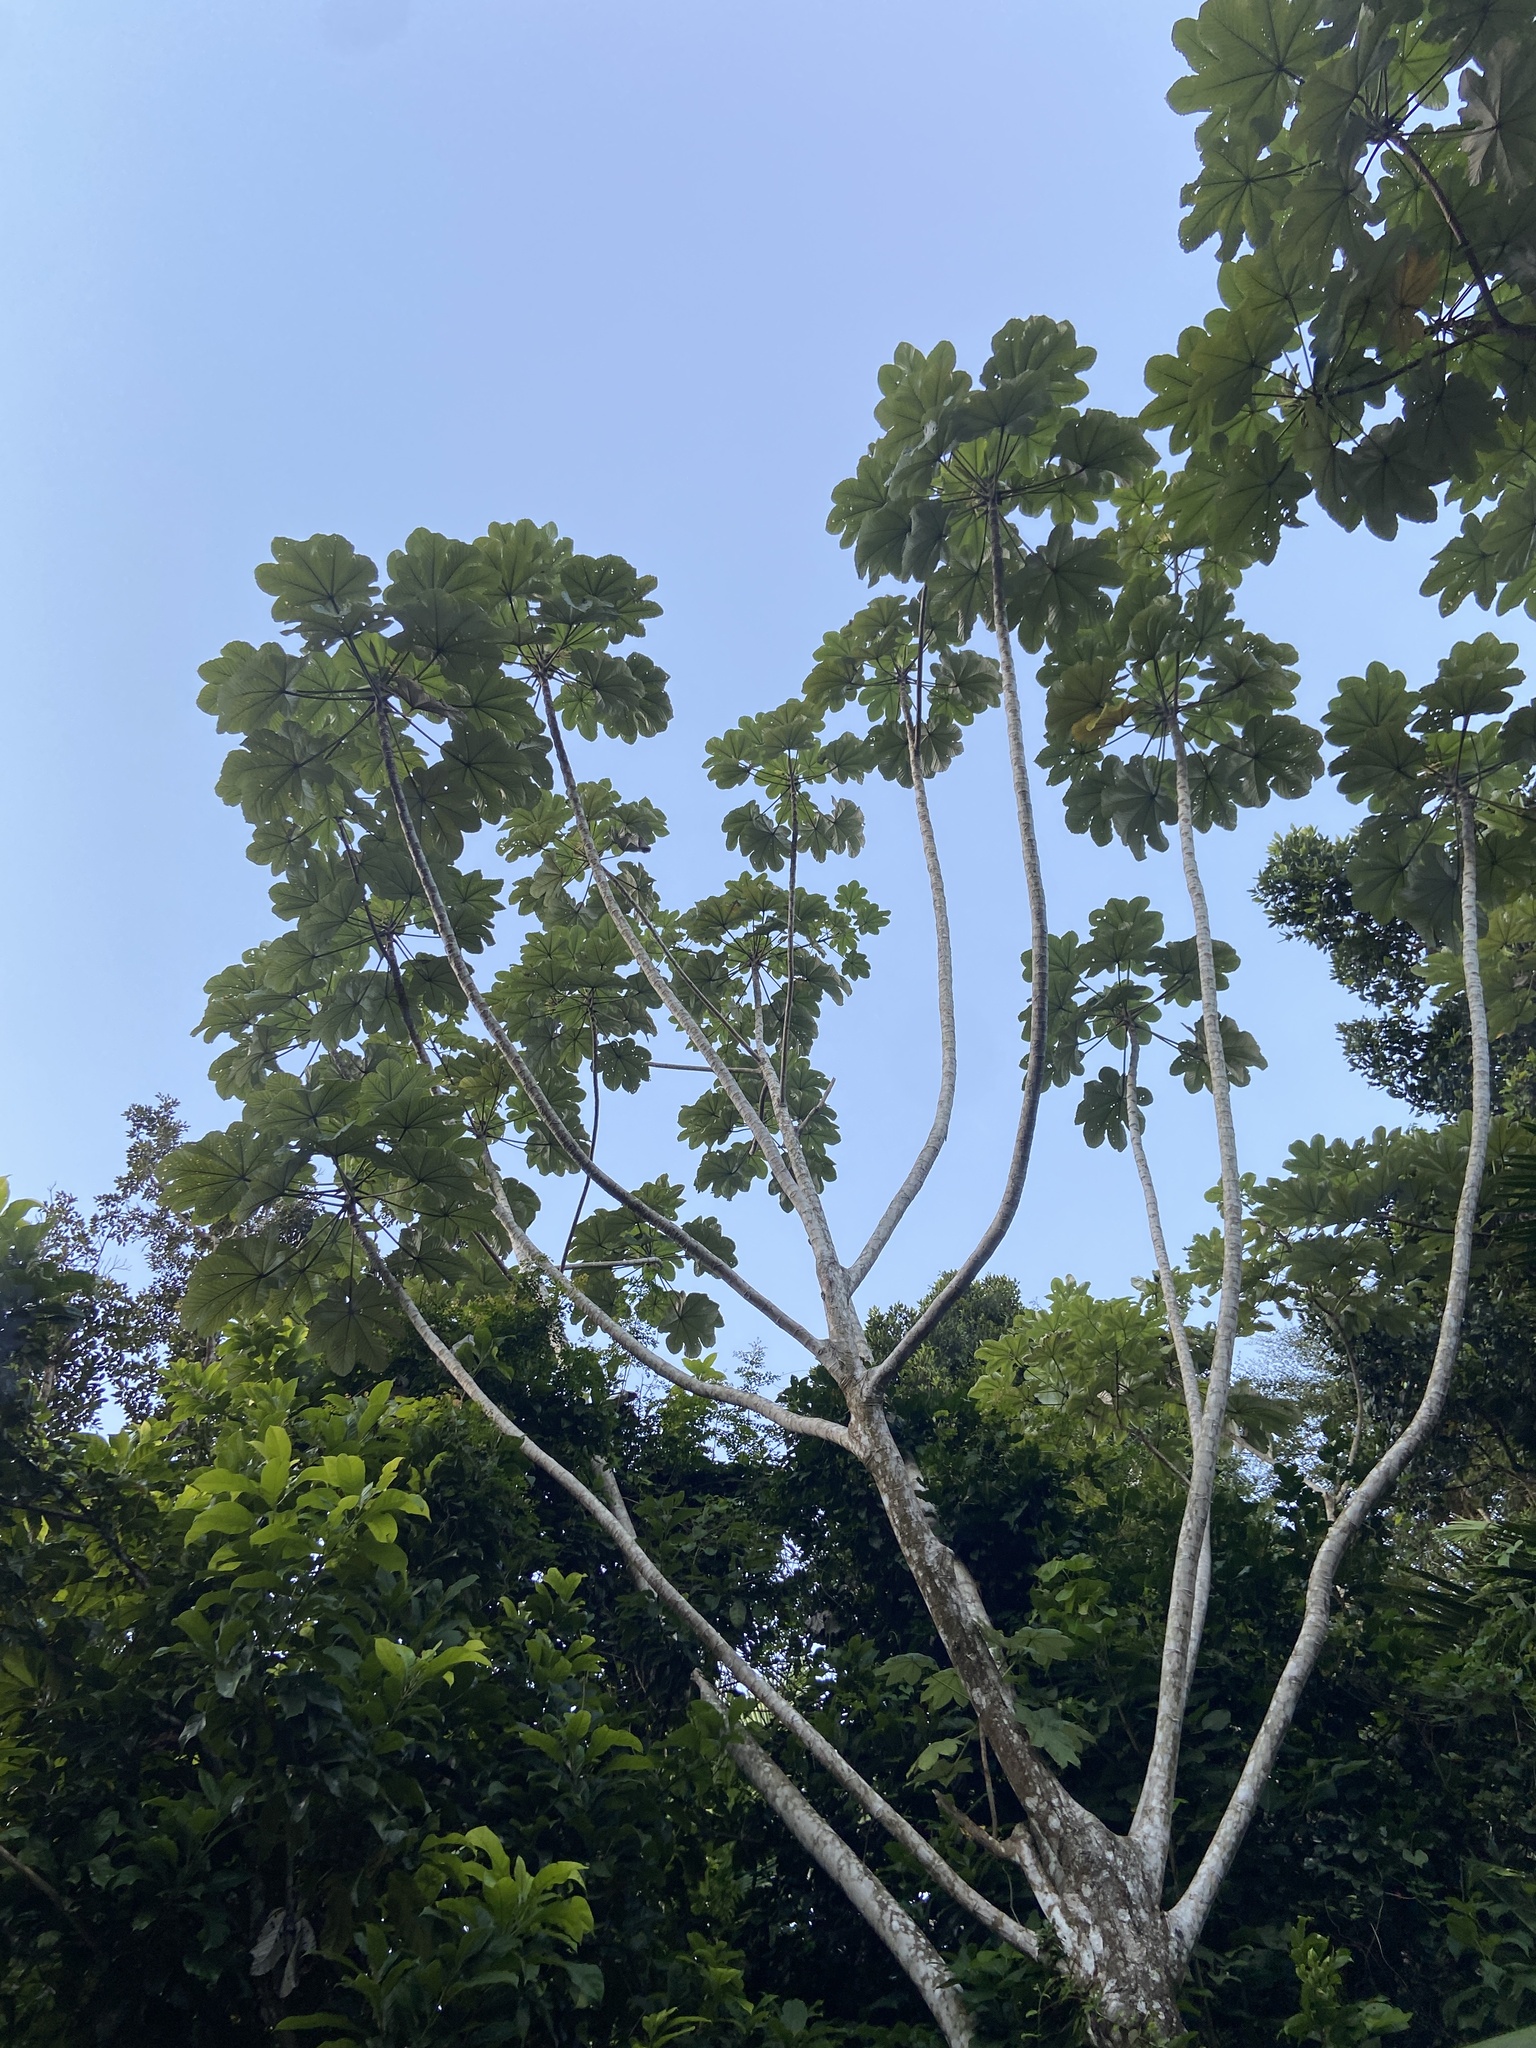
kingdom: Plantae
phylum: Tracheophyta
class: Magnoliopsida
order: Rosales
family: Urticaceae
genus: Cecropia
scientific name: Cecropia schreberiana
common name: Trumpet tree
